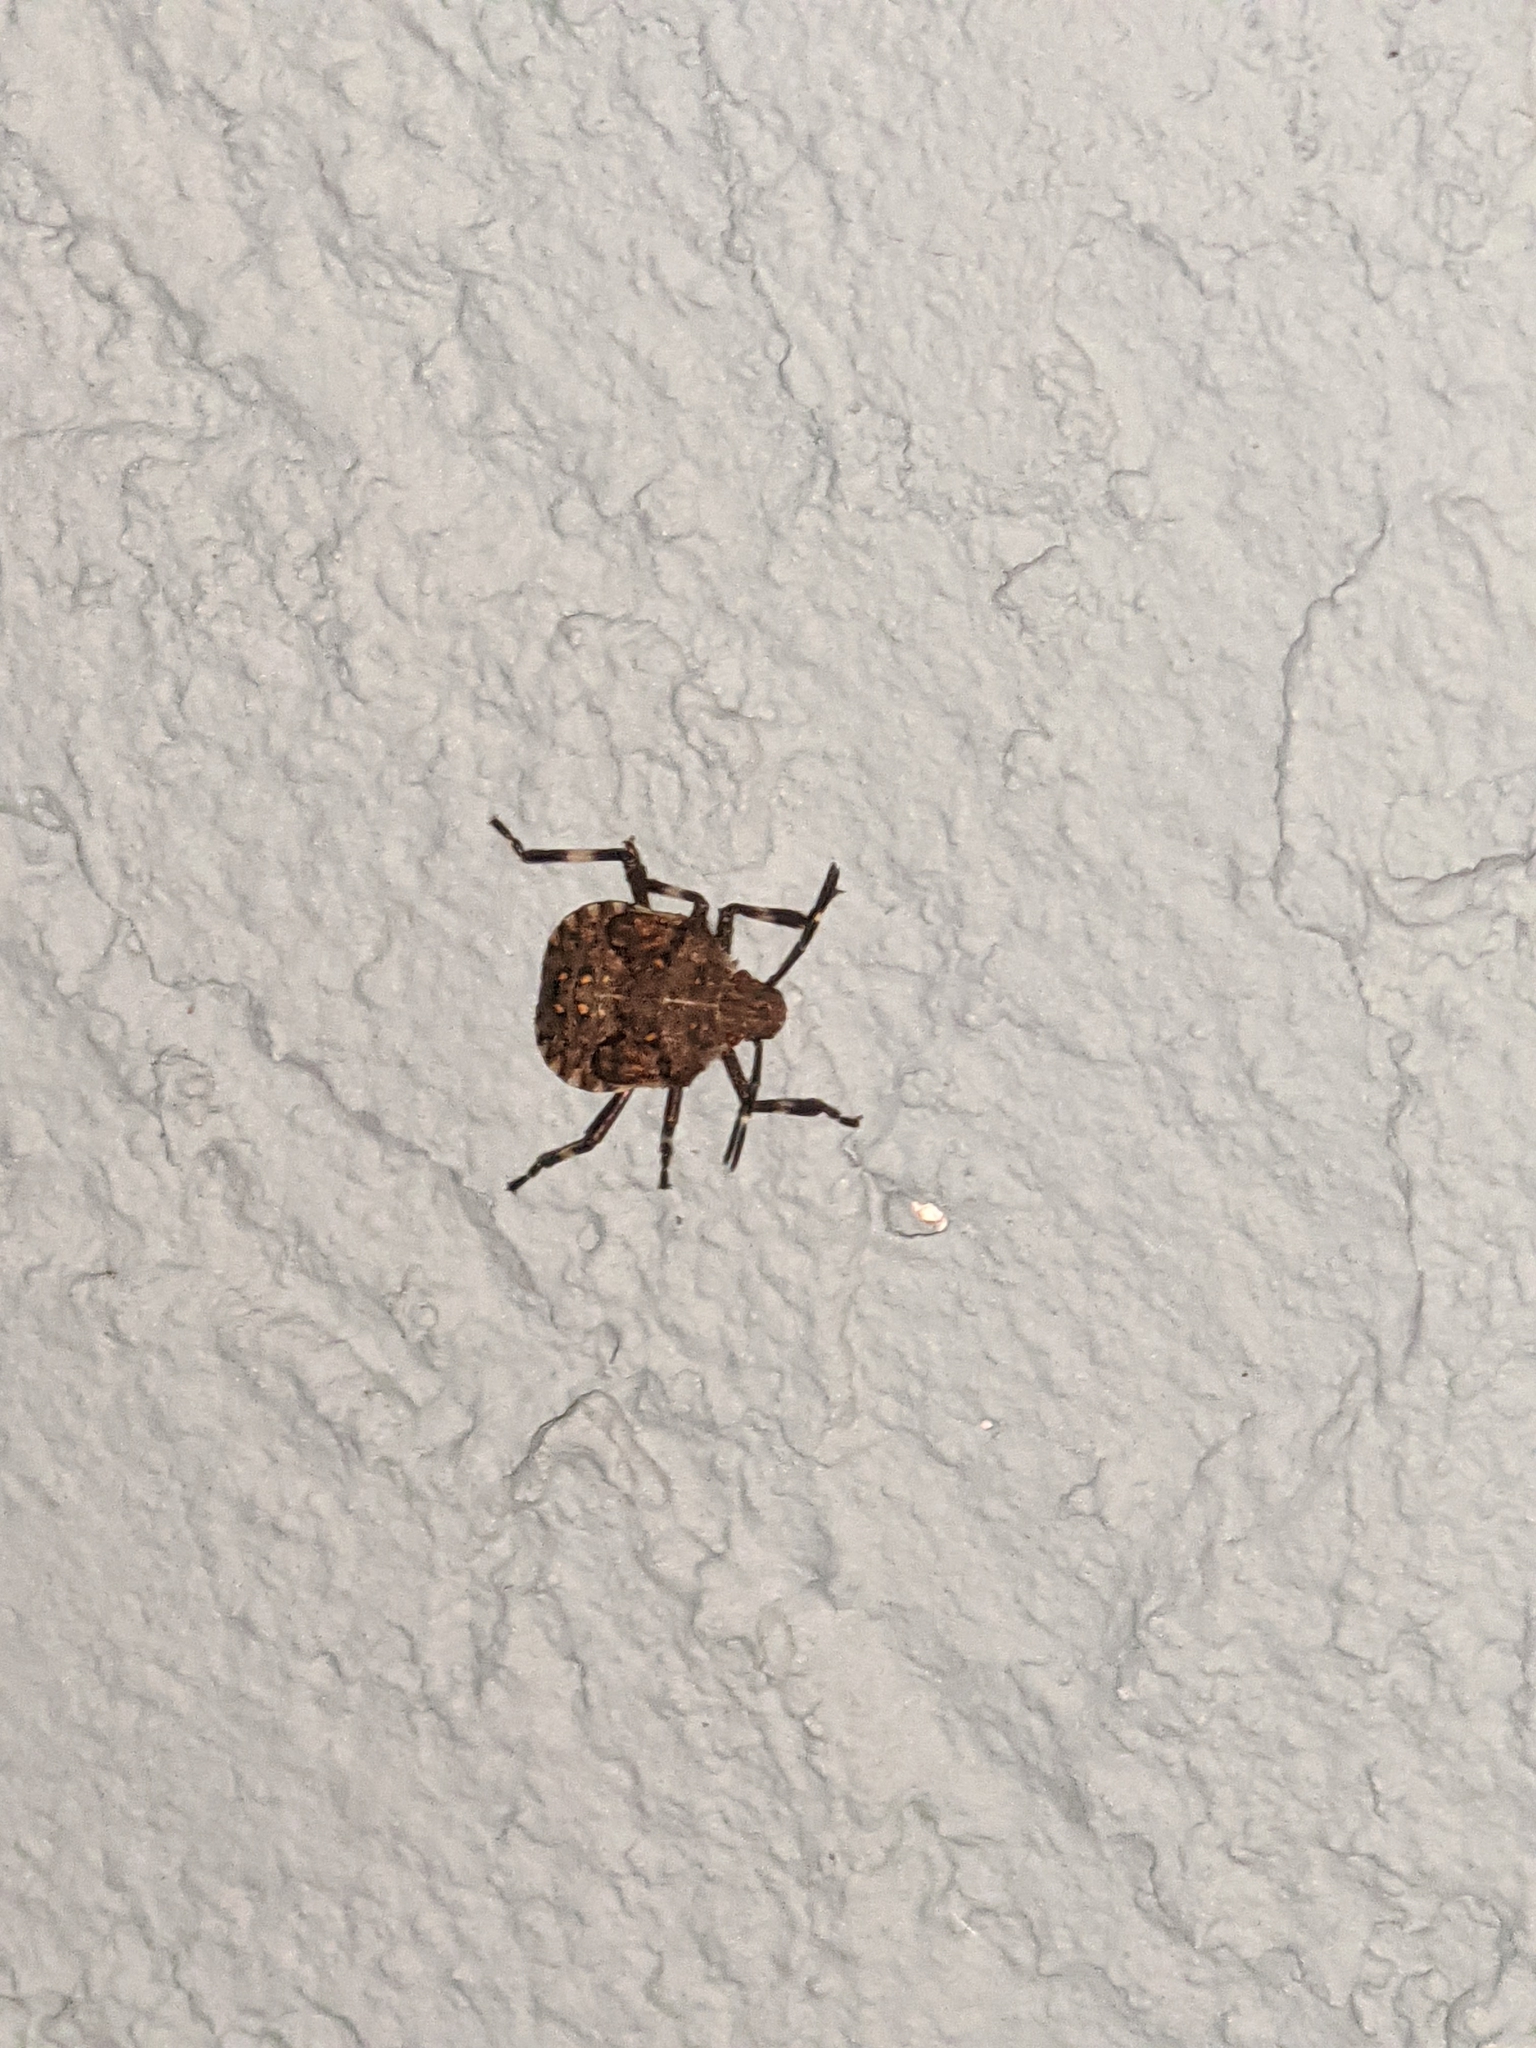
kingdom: Animalia
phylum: Arthropoda
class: Insecta
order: Hemiptera
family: Pentatomidae
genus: Halyomorpha
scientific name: Halyomorpha halys
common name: Brown marmorated stink bug
